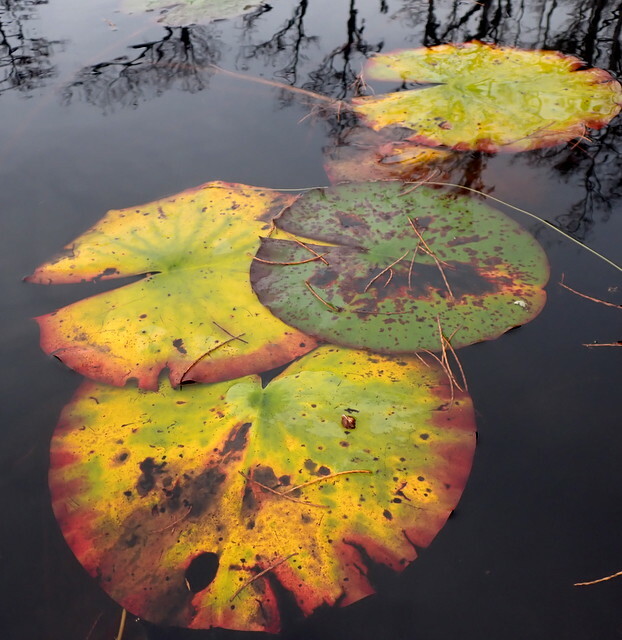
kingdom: Plantae
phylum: Tracheophyta
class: Magnoliopsida
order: Nymphaeales
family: Nymphaeaceae
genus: Nymphaea
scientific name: Nymphaea odorata
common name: Fragrant water-lily
